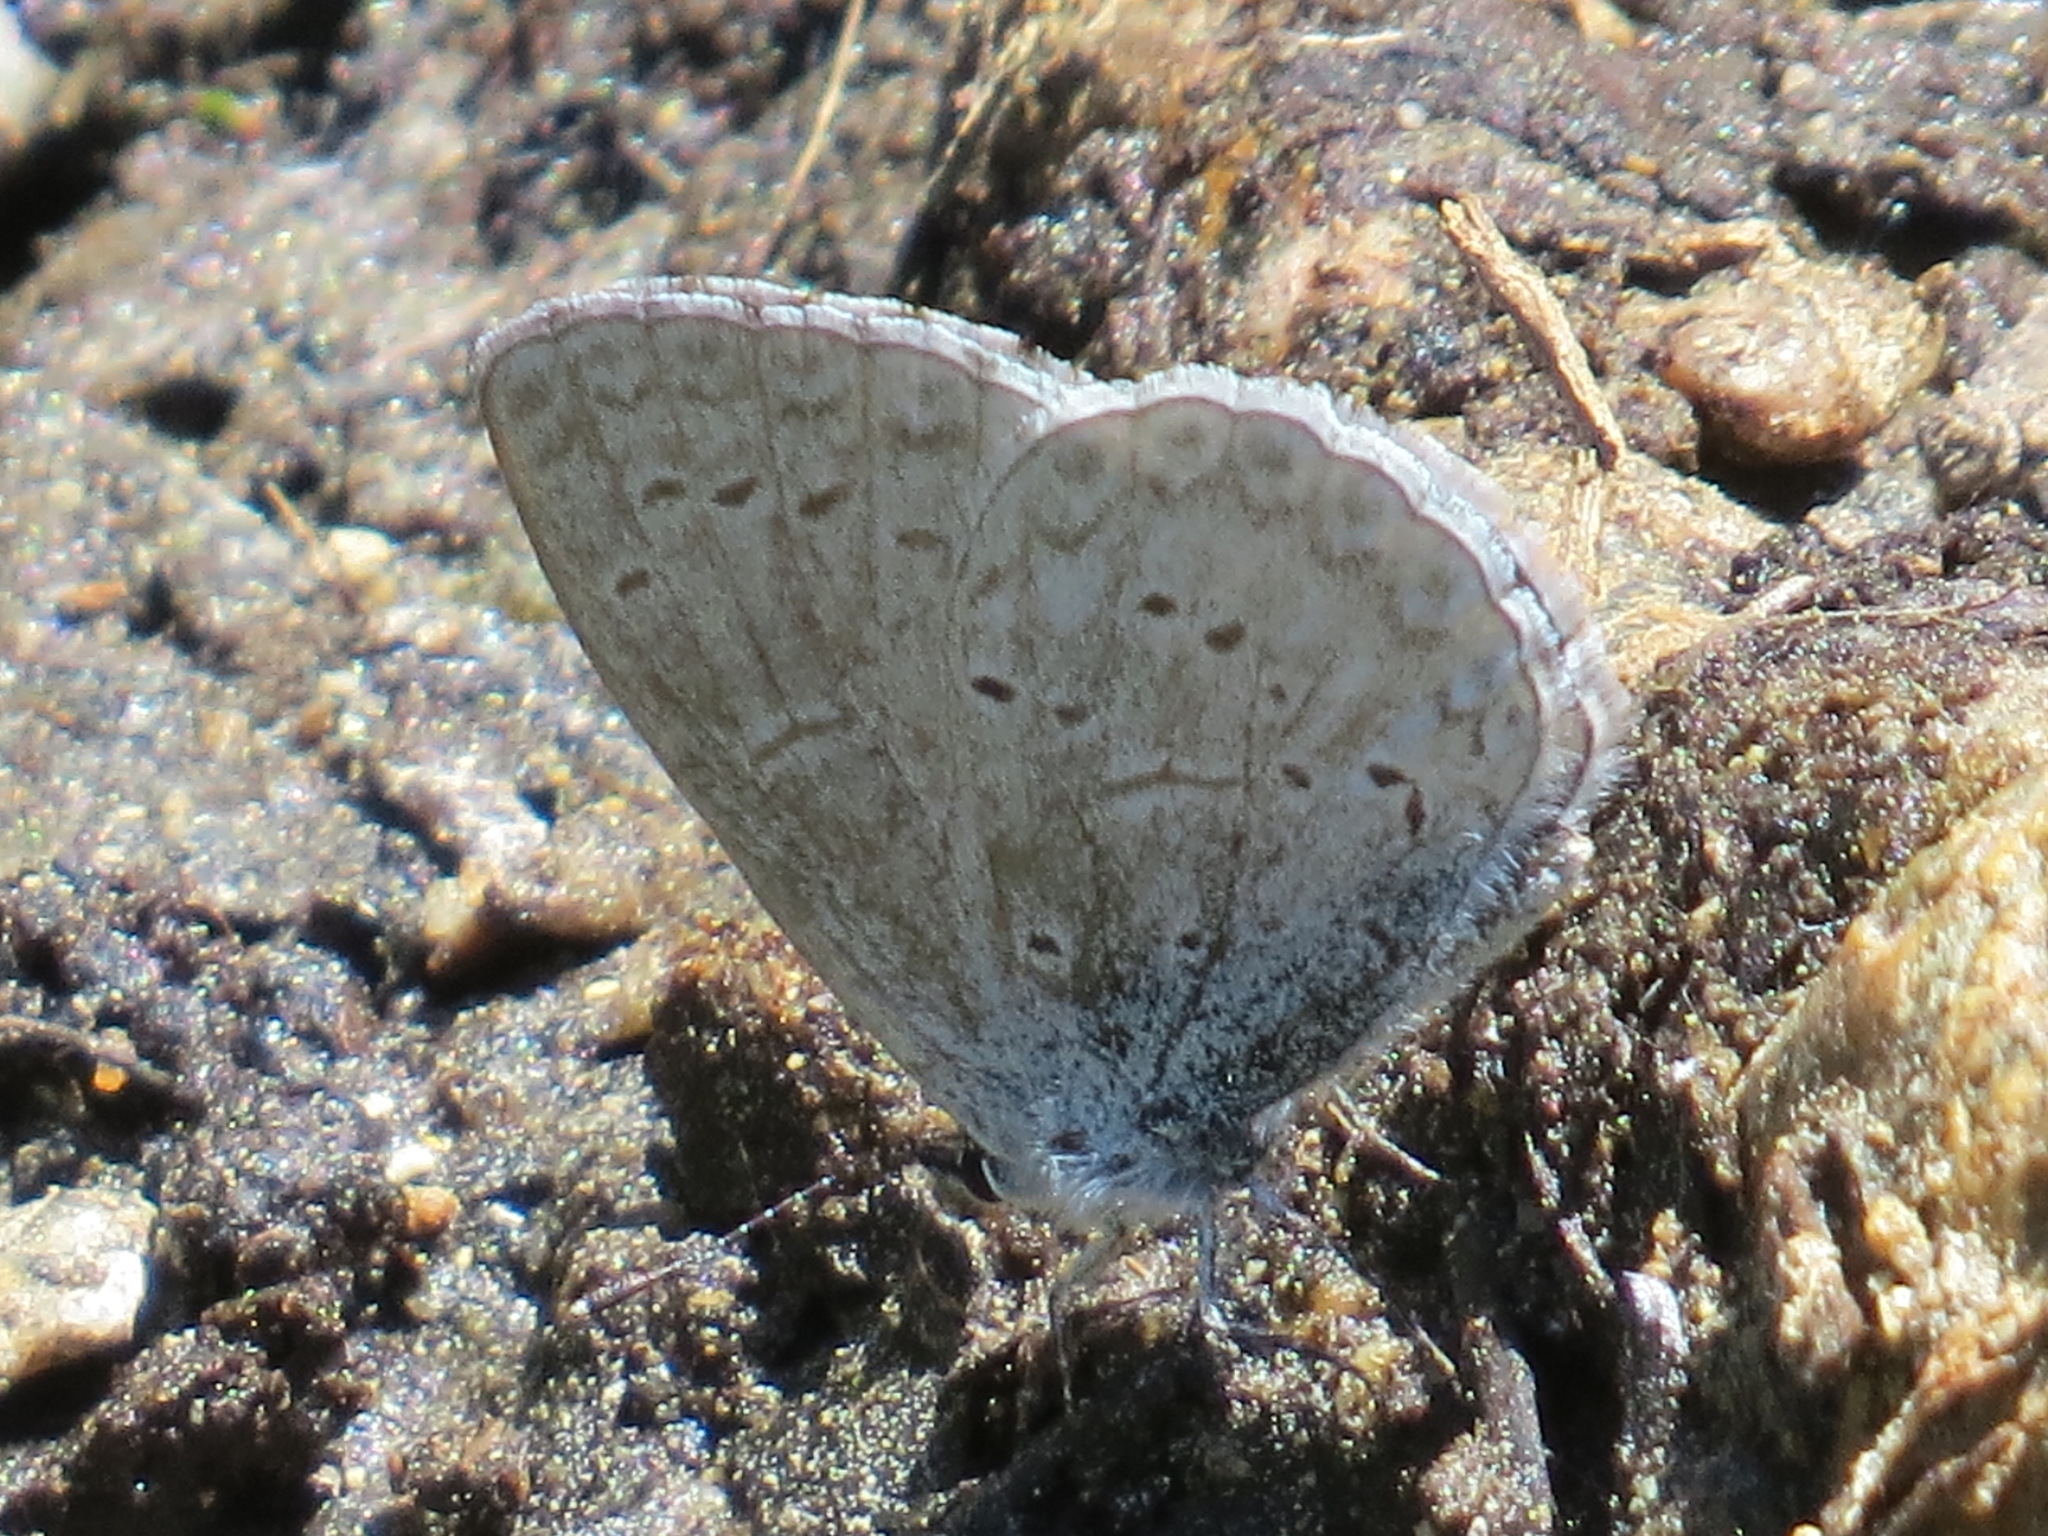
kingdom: Animalia
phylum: Arthropoda
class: Insecta
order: Lepidoptera
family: Lycaenidae
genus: Celastrina
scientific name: Celastrina ladon
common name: Spring azure
